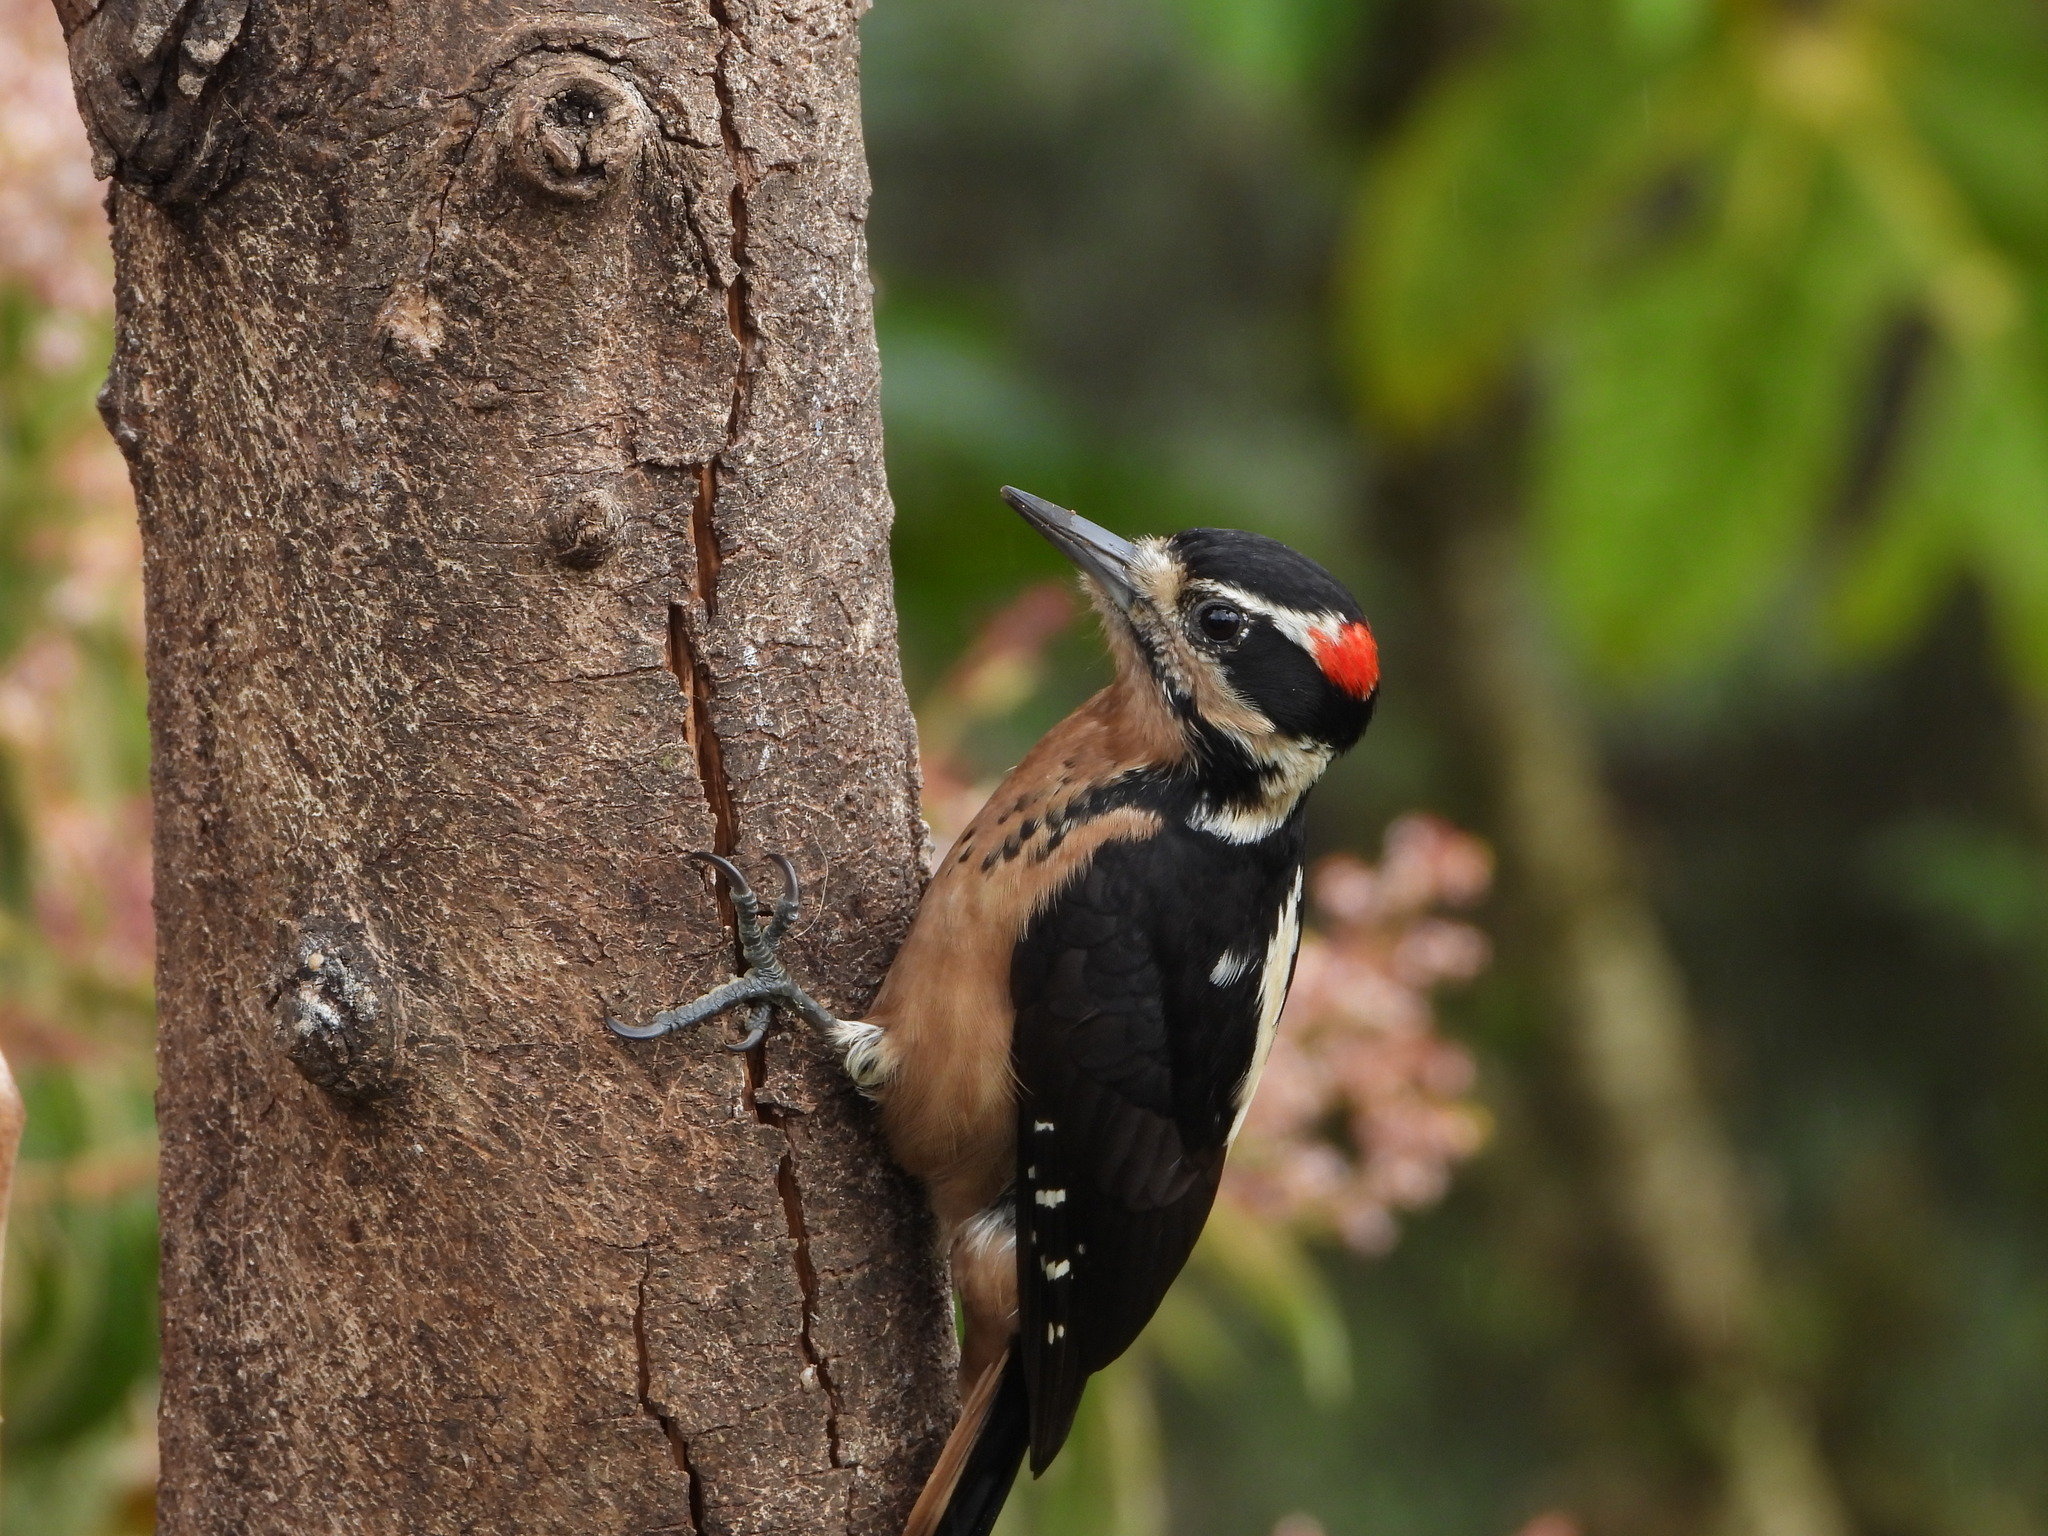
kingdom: Animalia
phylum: Chordata
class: Aves
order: Piciformes
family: Picidae
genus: Leuconotopicus
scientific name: Leuconotopicus villosus
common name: Hairy woodpecker
